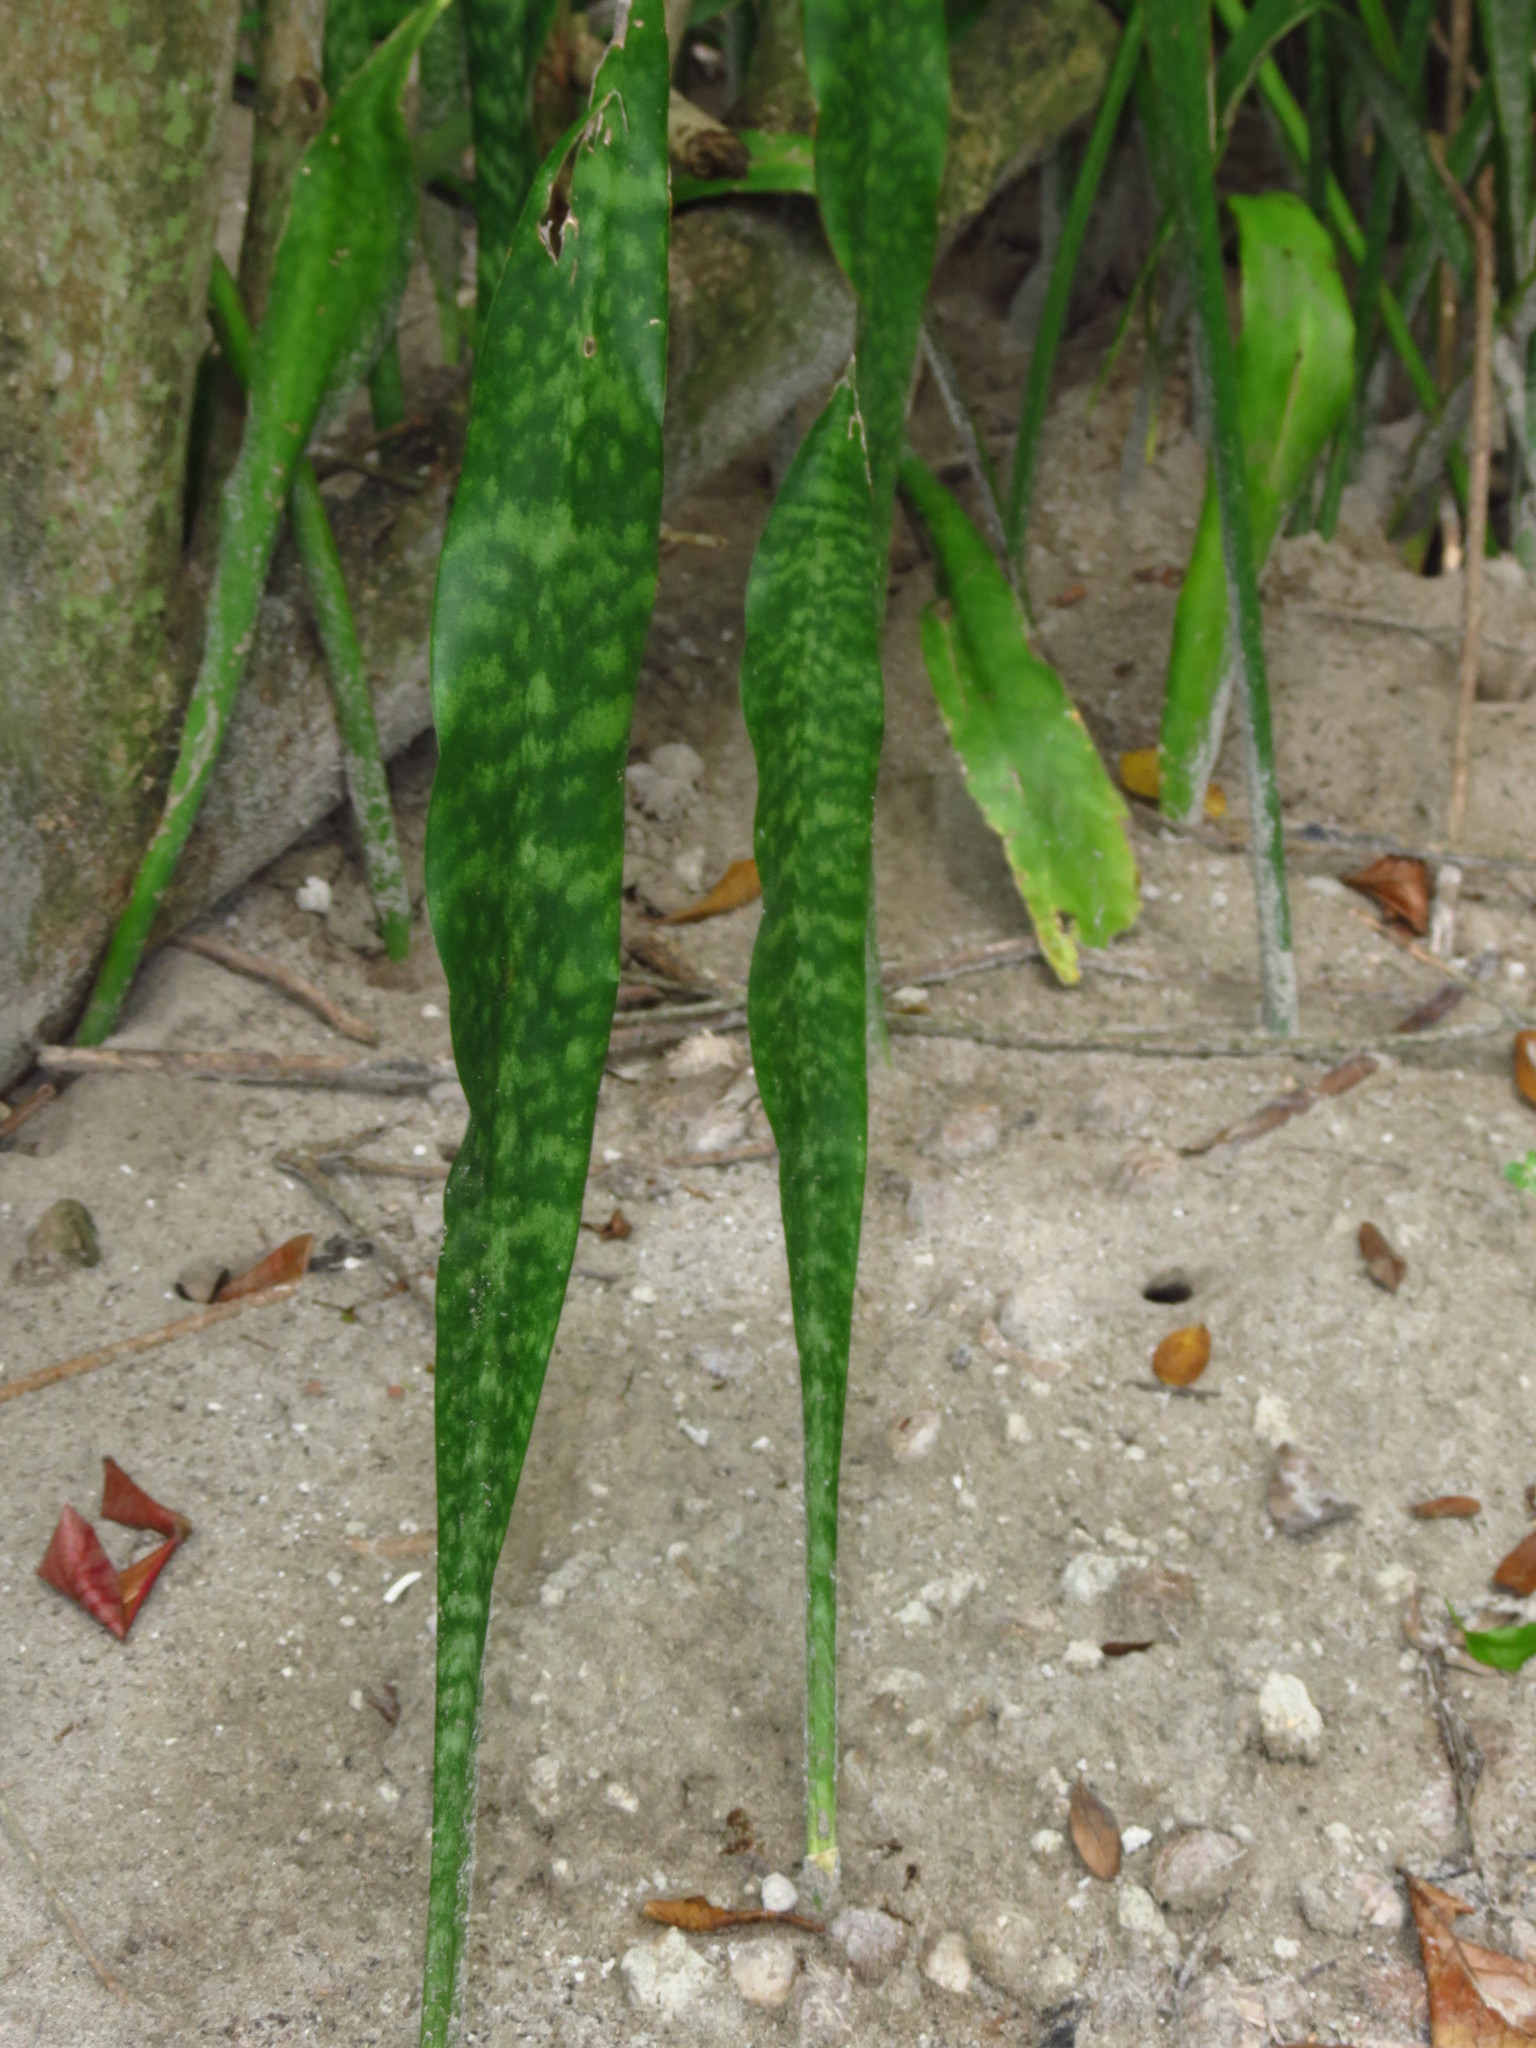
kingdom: Plantae
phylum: Tracheophyta
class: Liliopsida
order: Asparagales
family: Asparagaceae
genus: Dracaena
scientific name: Dracaena hyacinthoides
